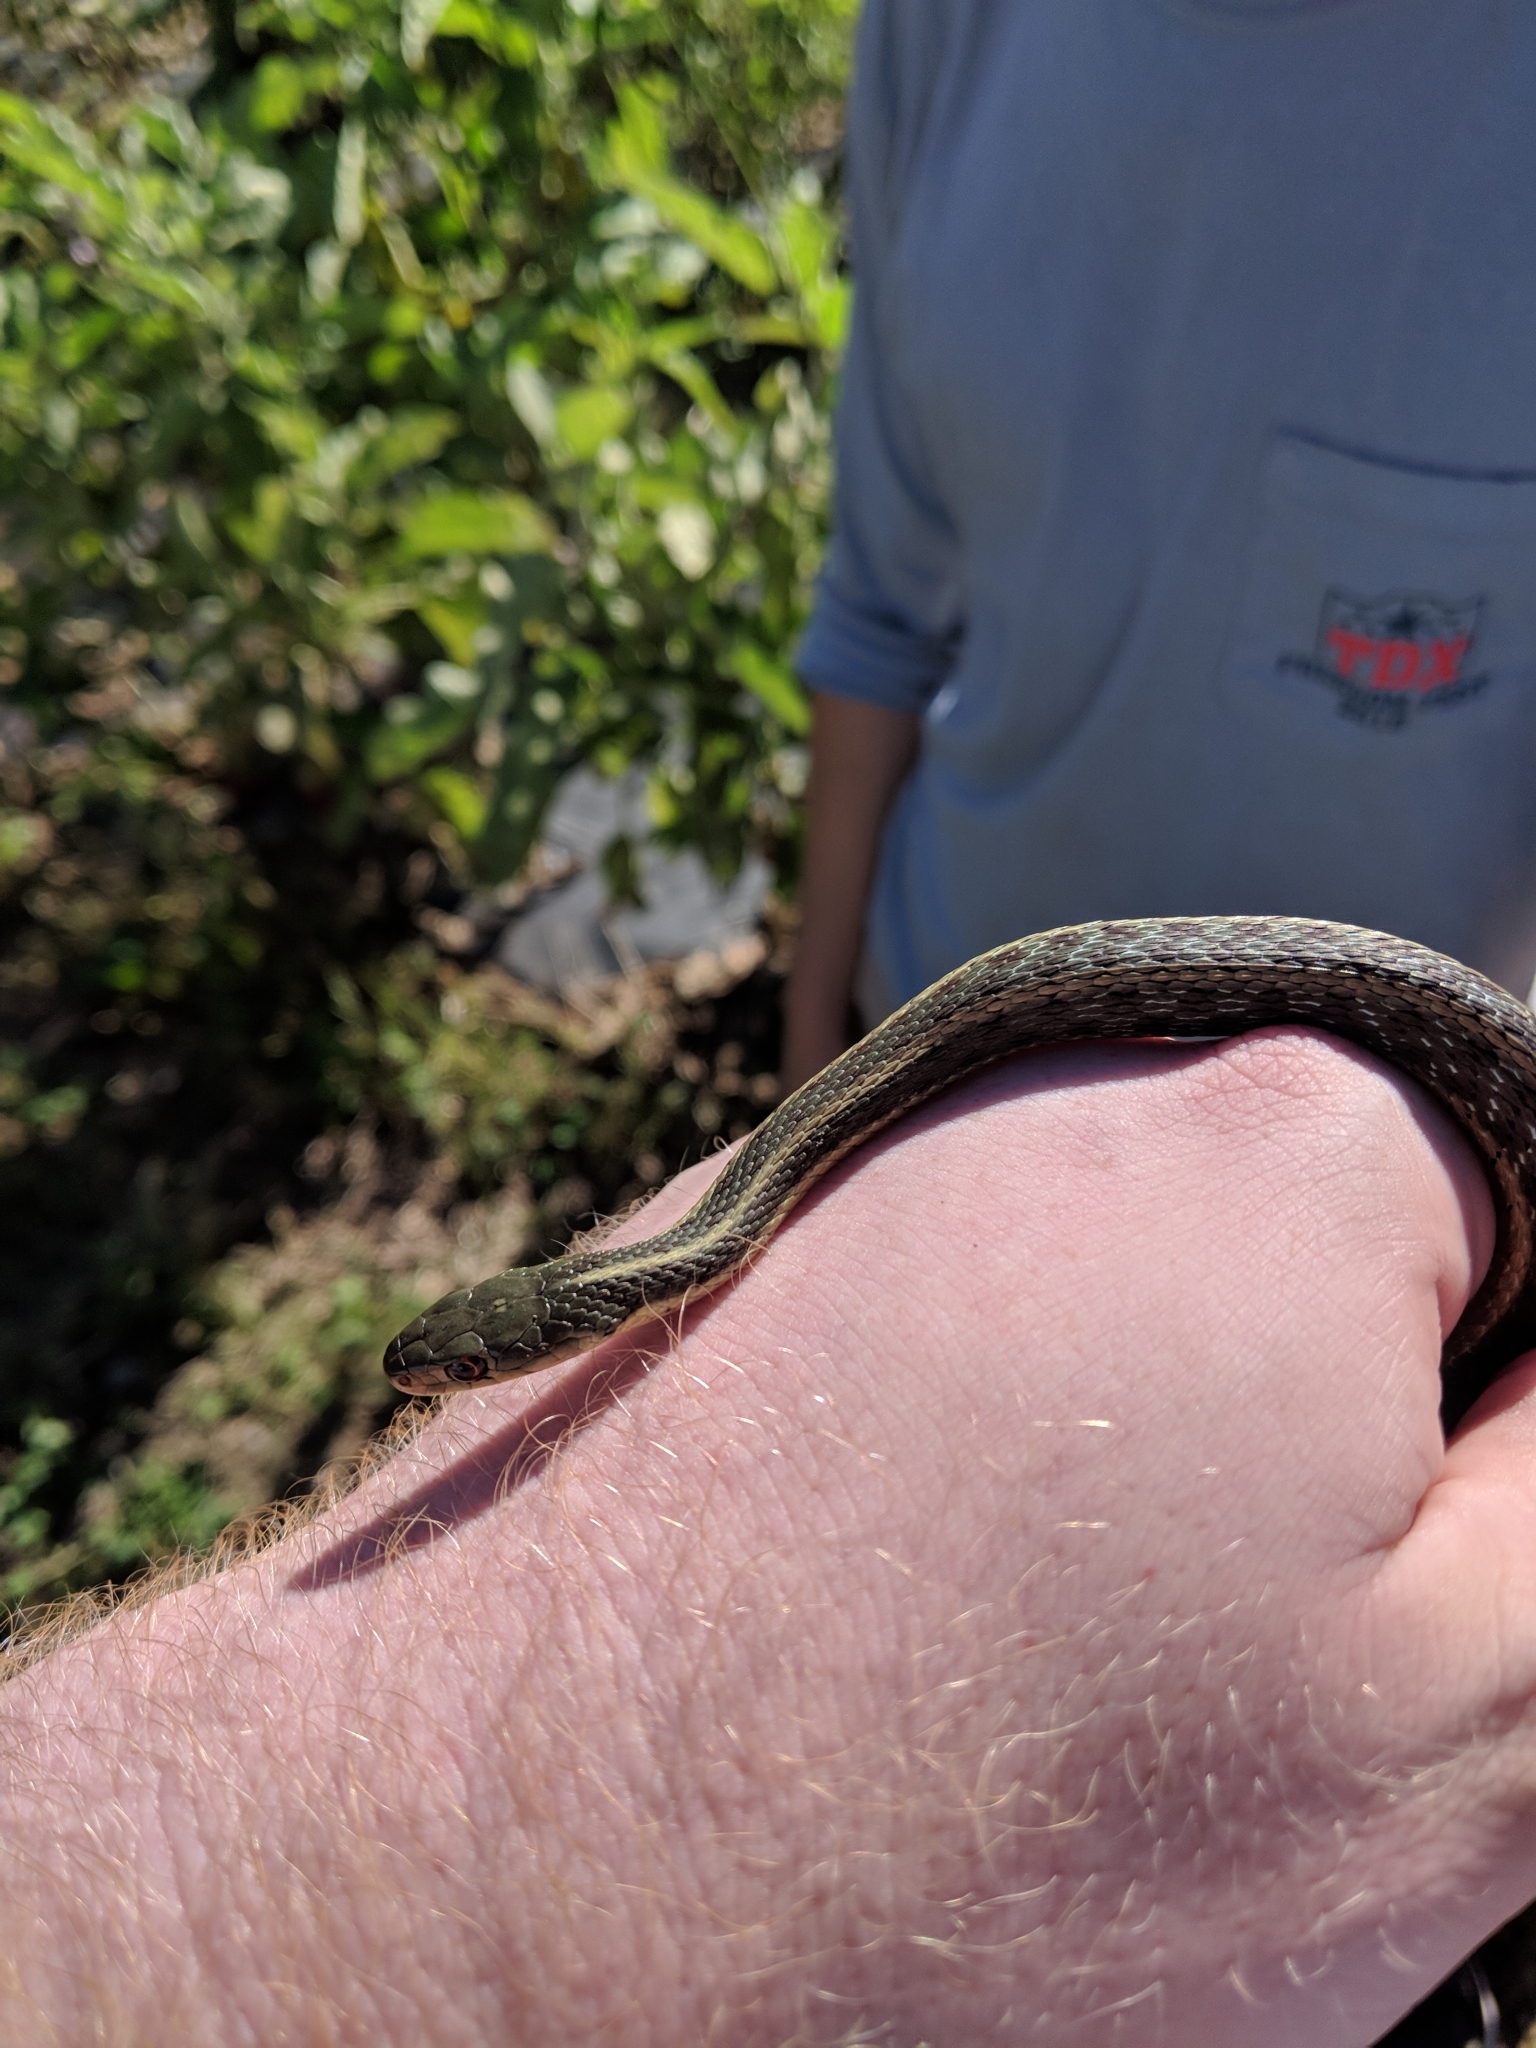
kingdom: Animalia
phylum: Chordata
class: Squamata
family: Colubridae
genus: Thamnophis
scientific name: Thamnophis sirtalis
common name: Common garter snake
